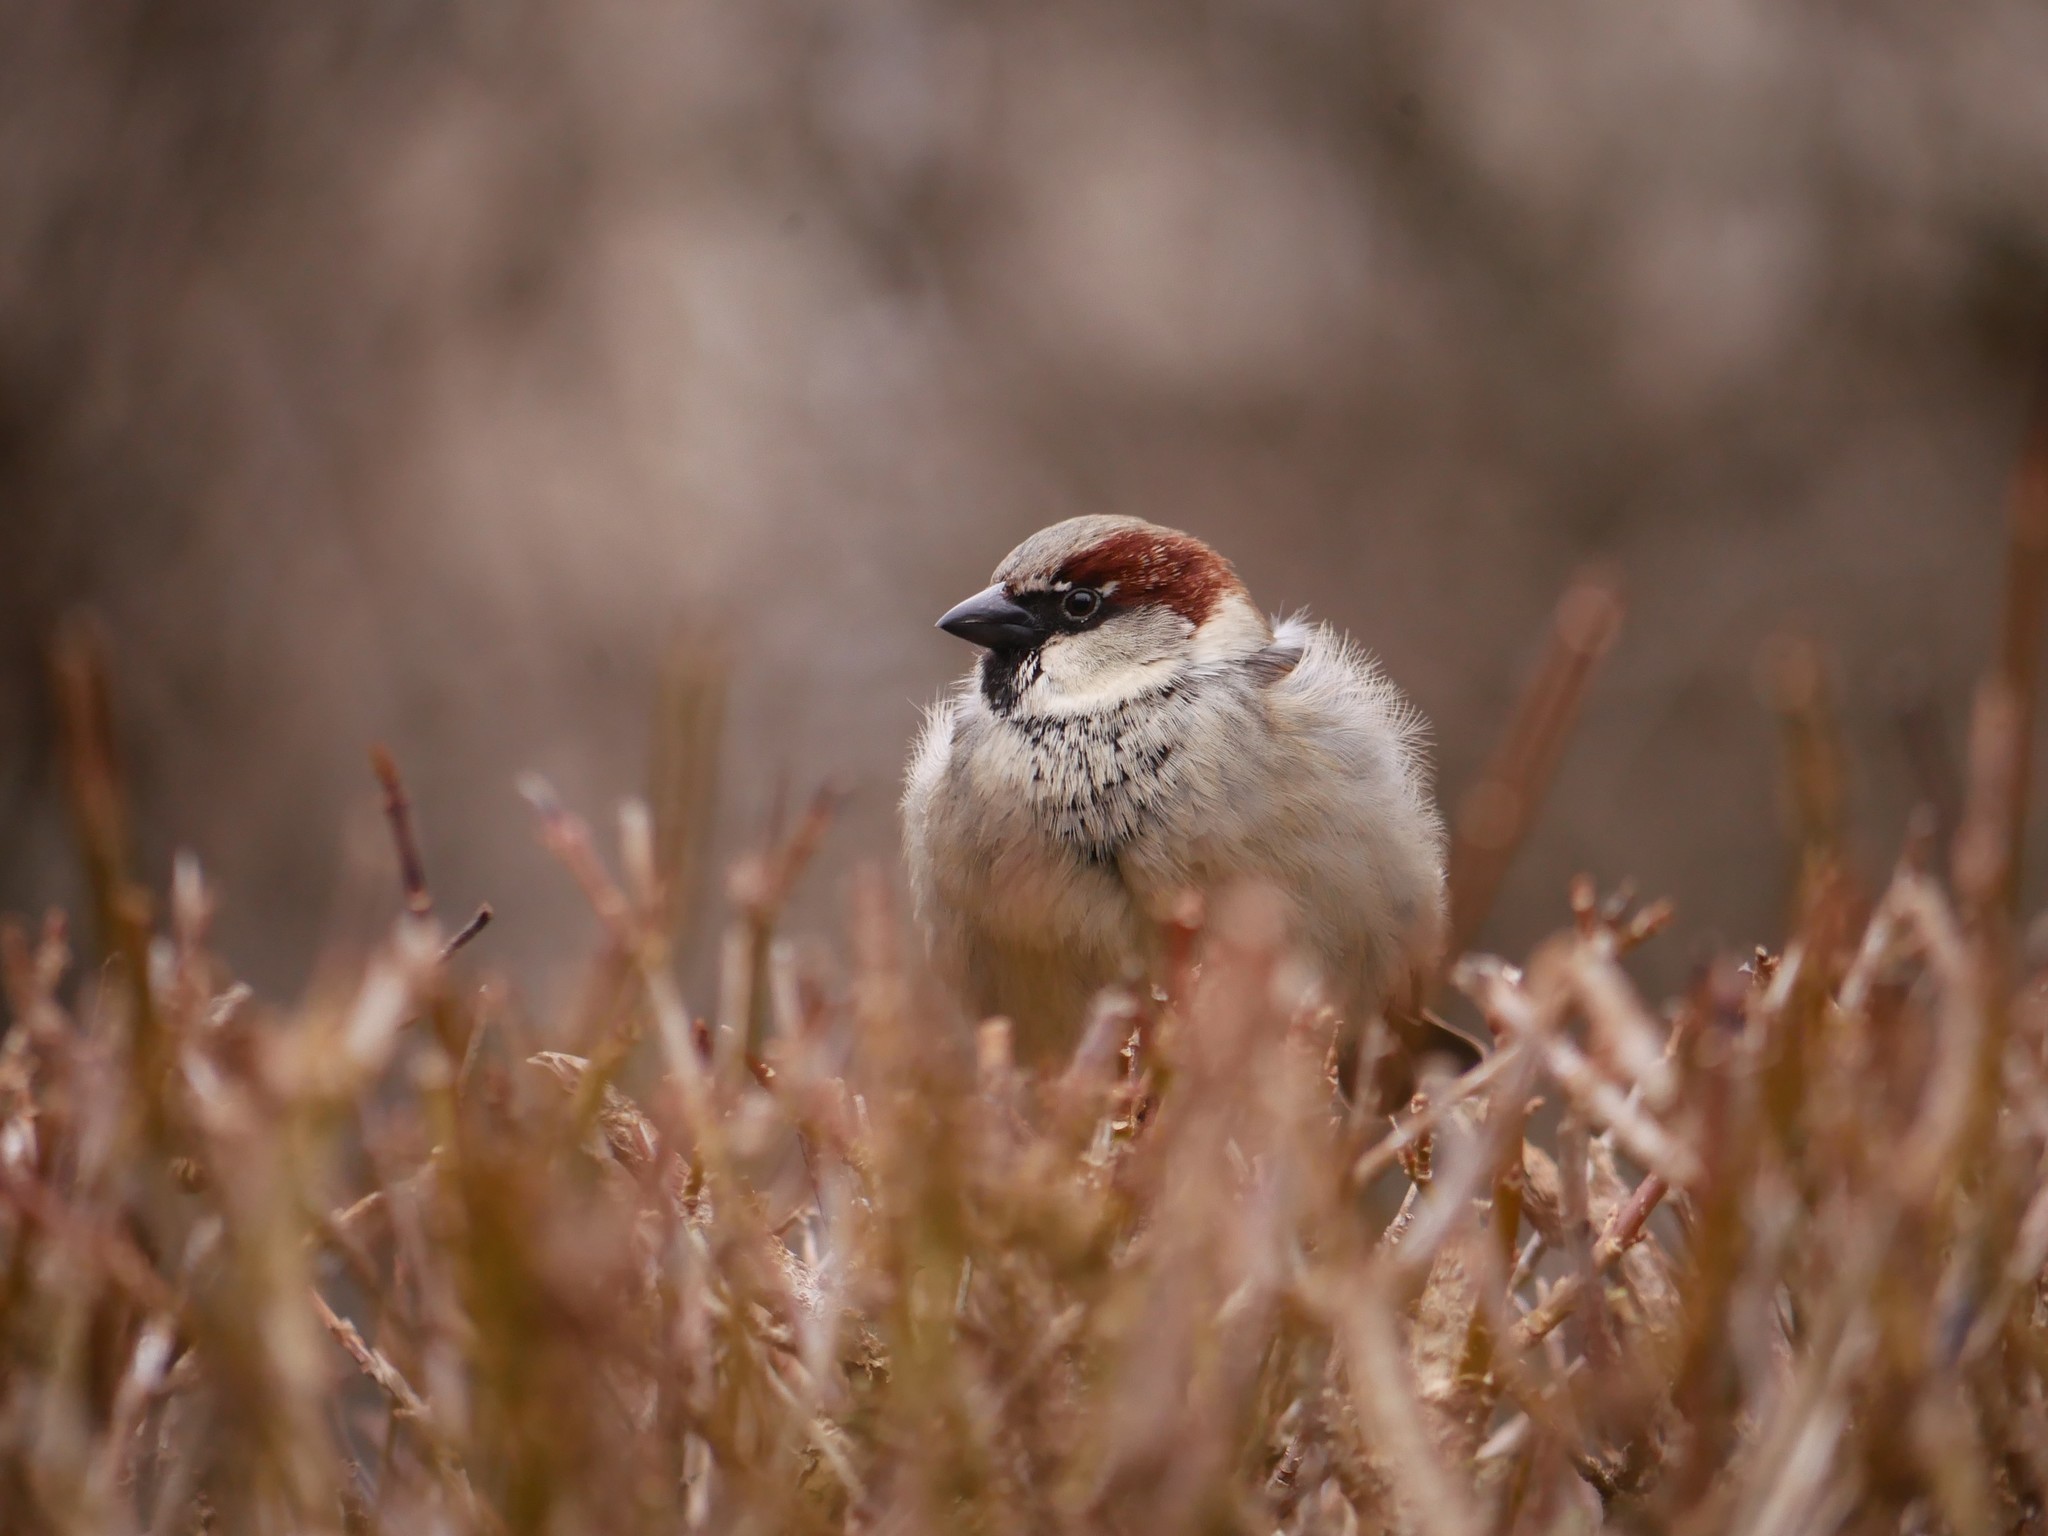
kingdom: Animalia
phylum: Chordata
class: Aves
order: Passeriformes
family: Passeridae
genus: Passer
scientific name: Passer domesticus
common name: House sparrow
